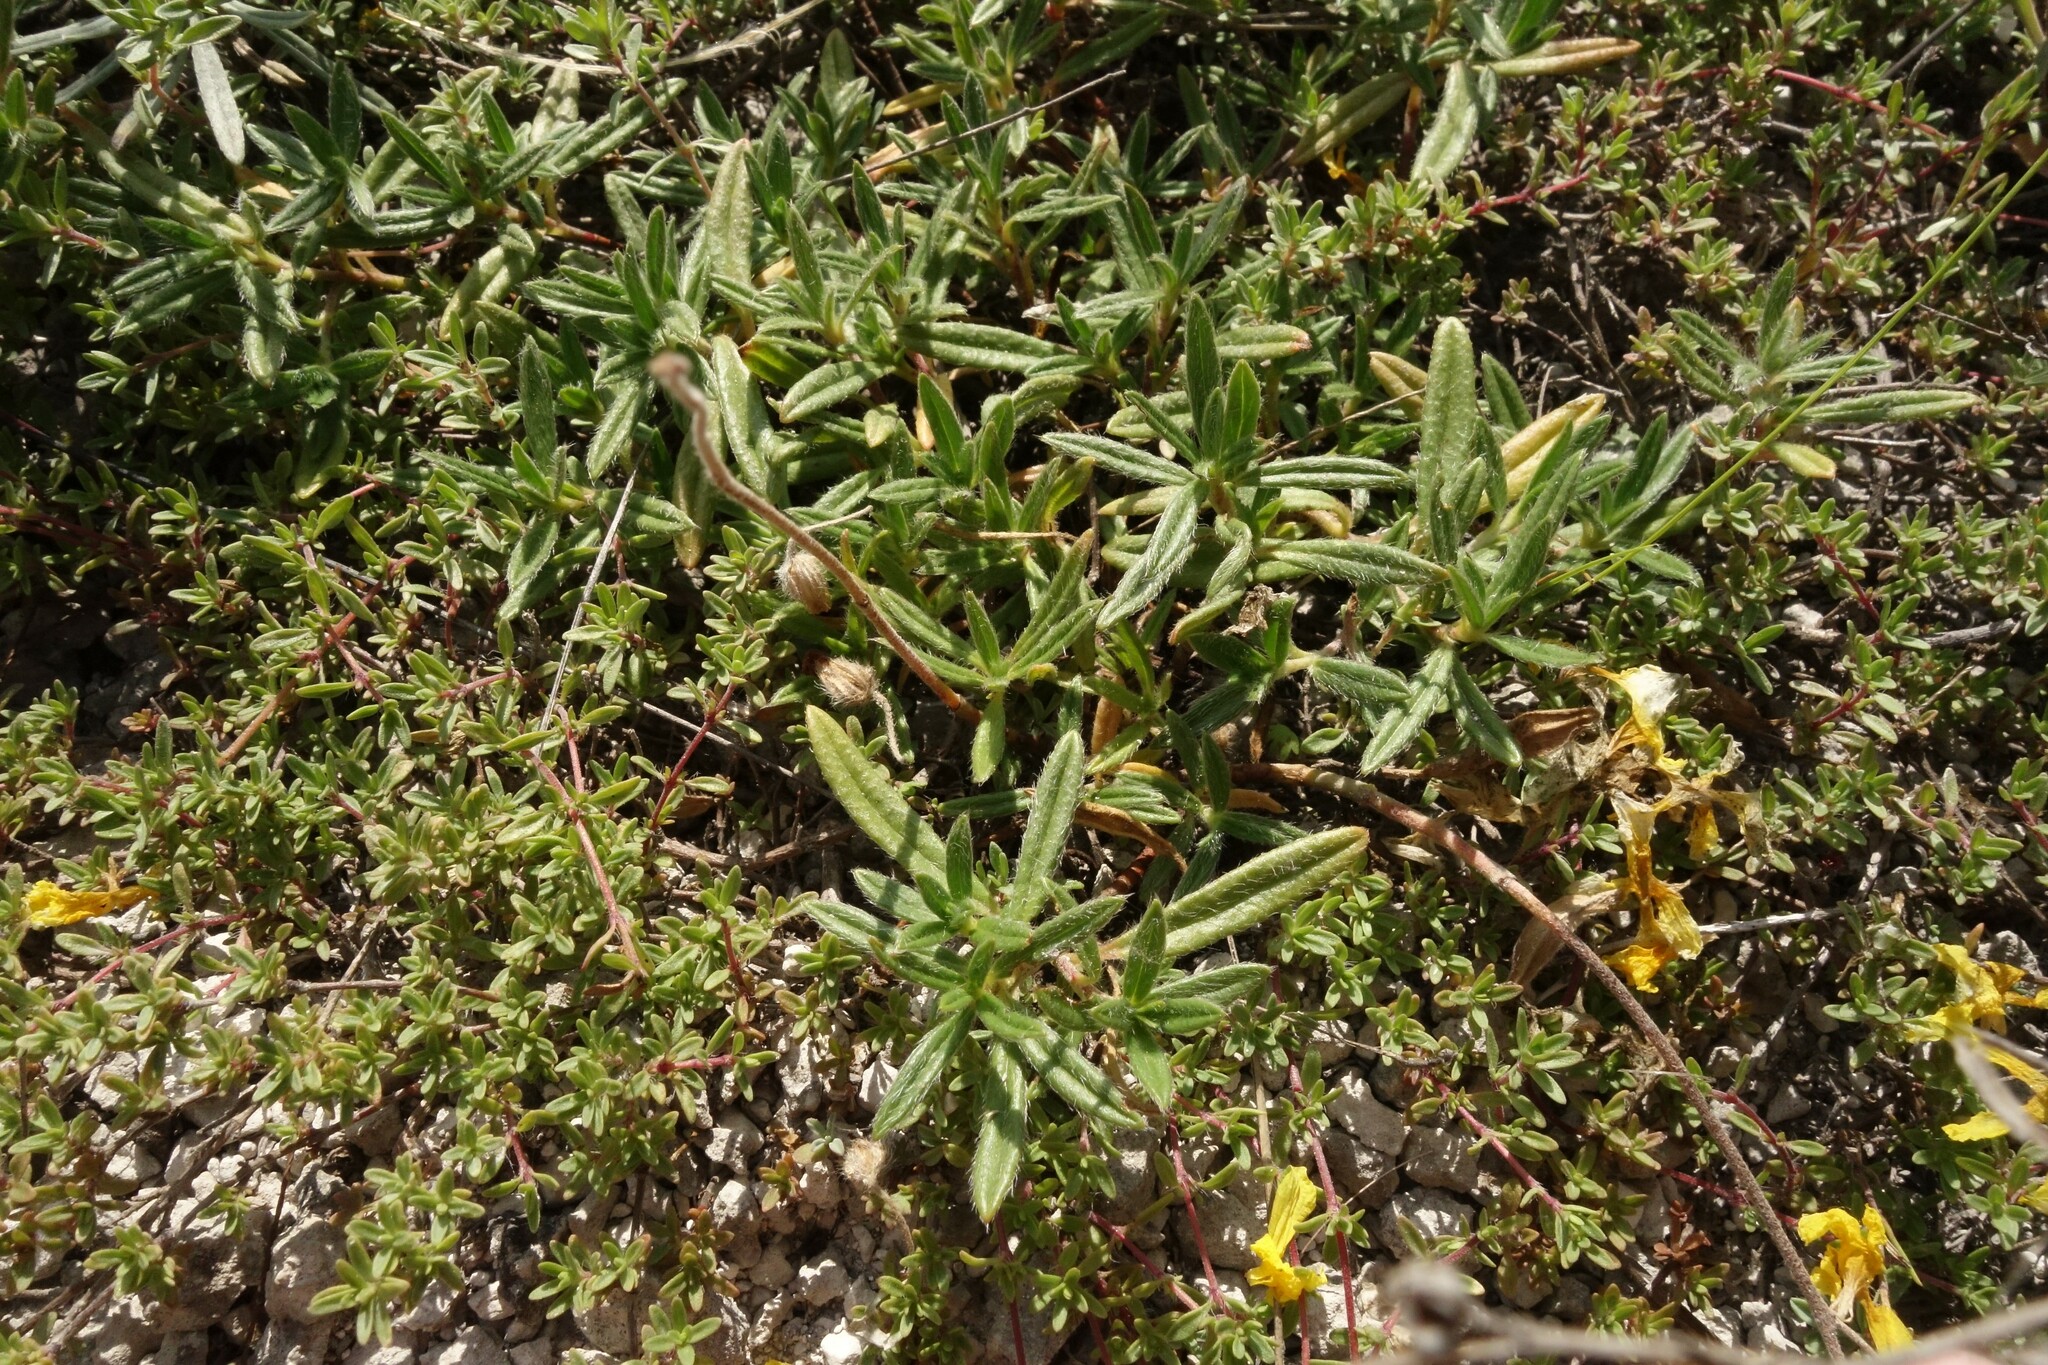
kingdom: Plantae
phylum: Tracheophyta
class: Magnoliopsida
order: Malvales
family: Cistaceae
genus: Helianthemum
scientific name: Helianthemum rupifragum
